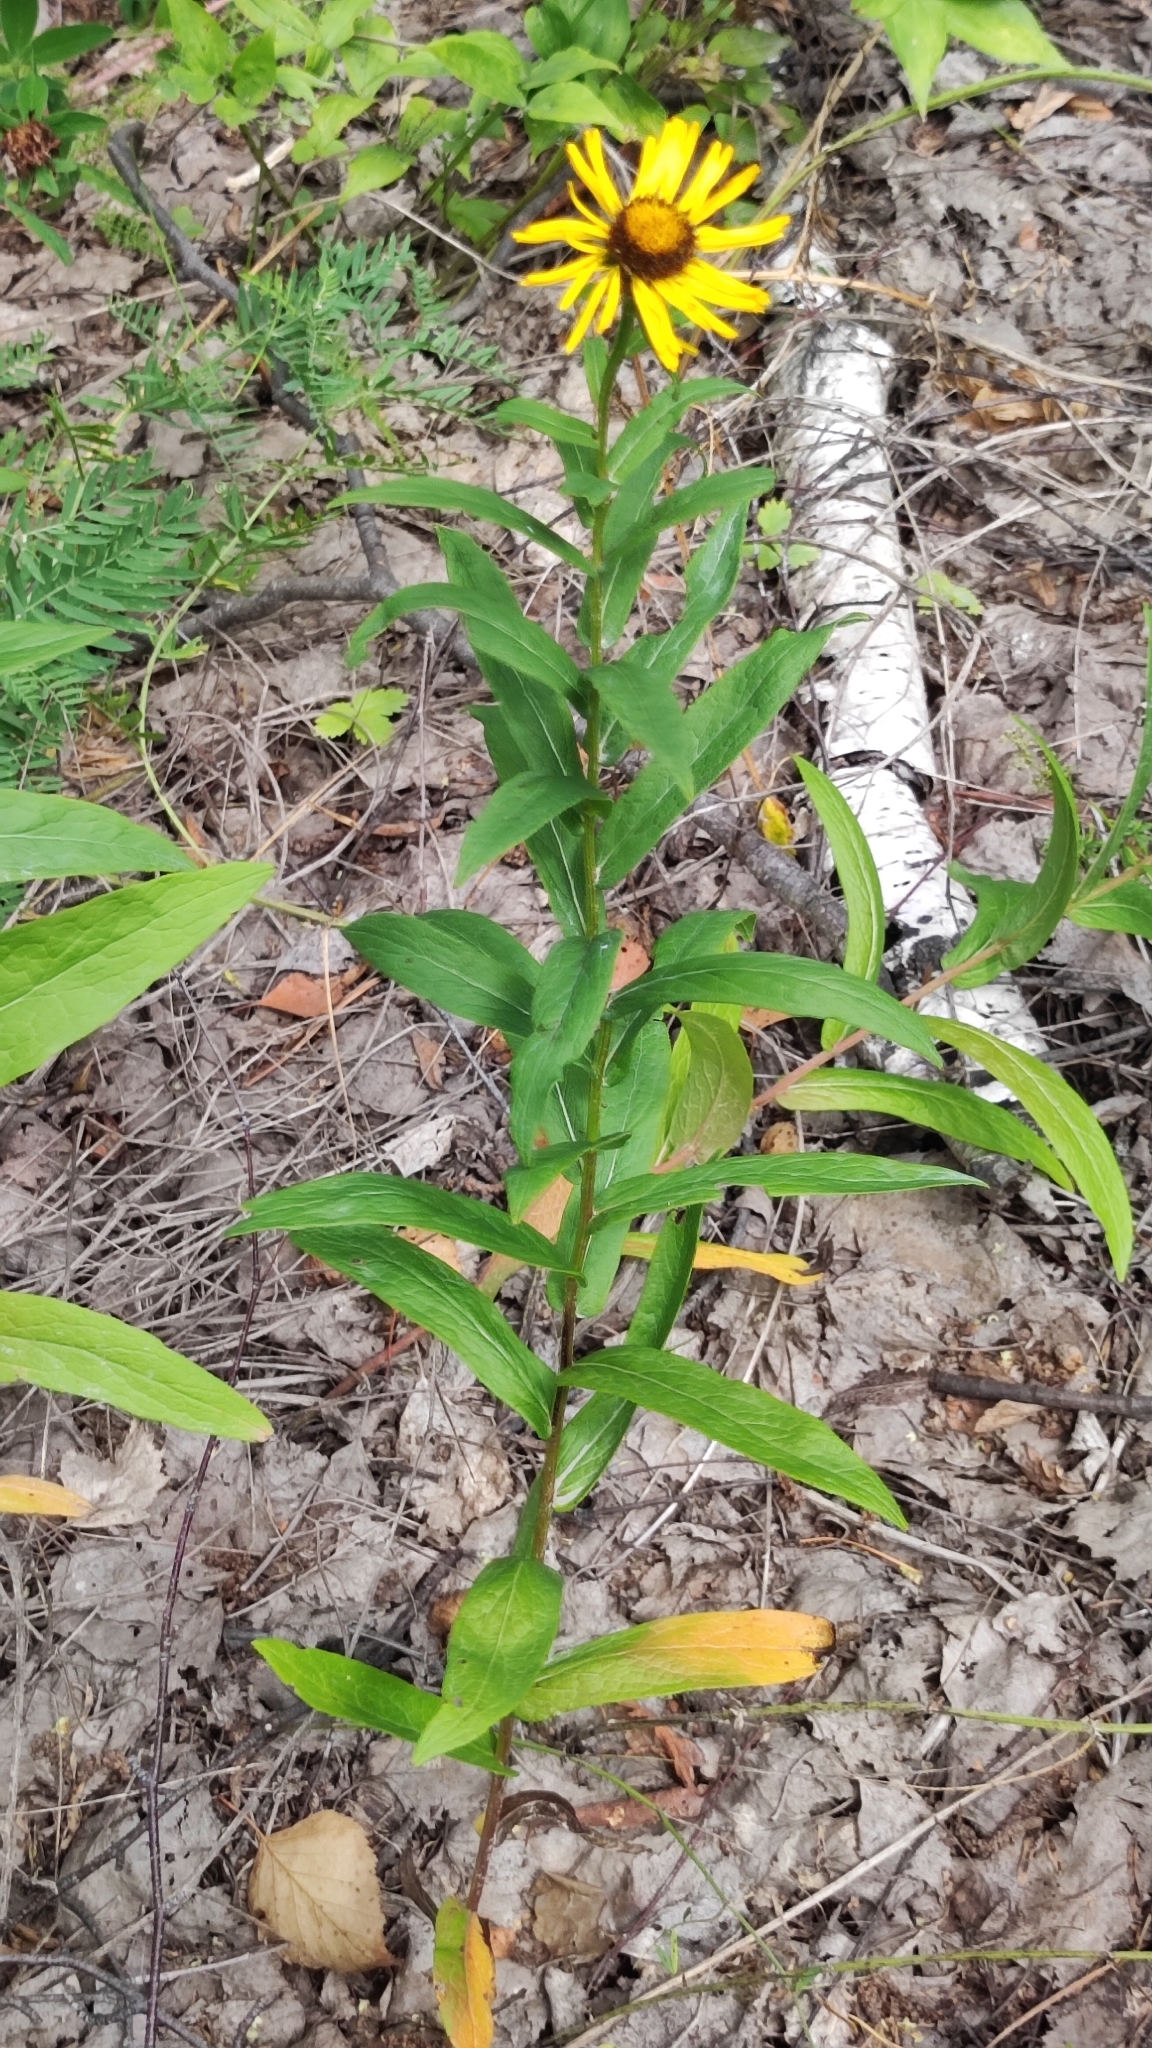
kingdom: Plantae
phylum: Tracheophyta
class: Magnoliopsida
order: Asterales
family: Asteraceae
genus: Pentanema
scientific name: Pentanema salicinum
